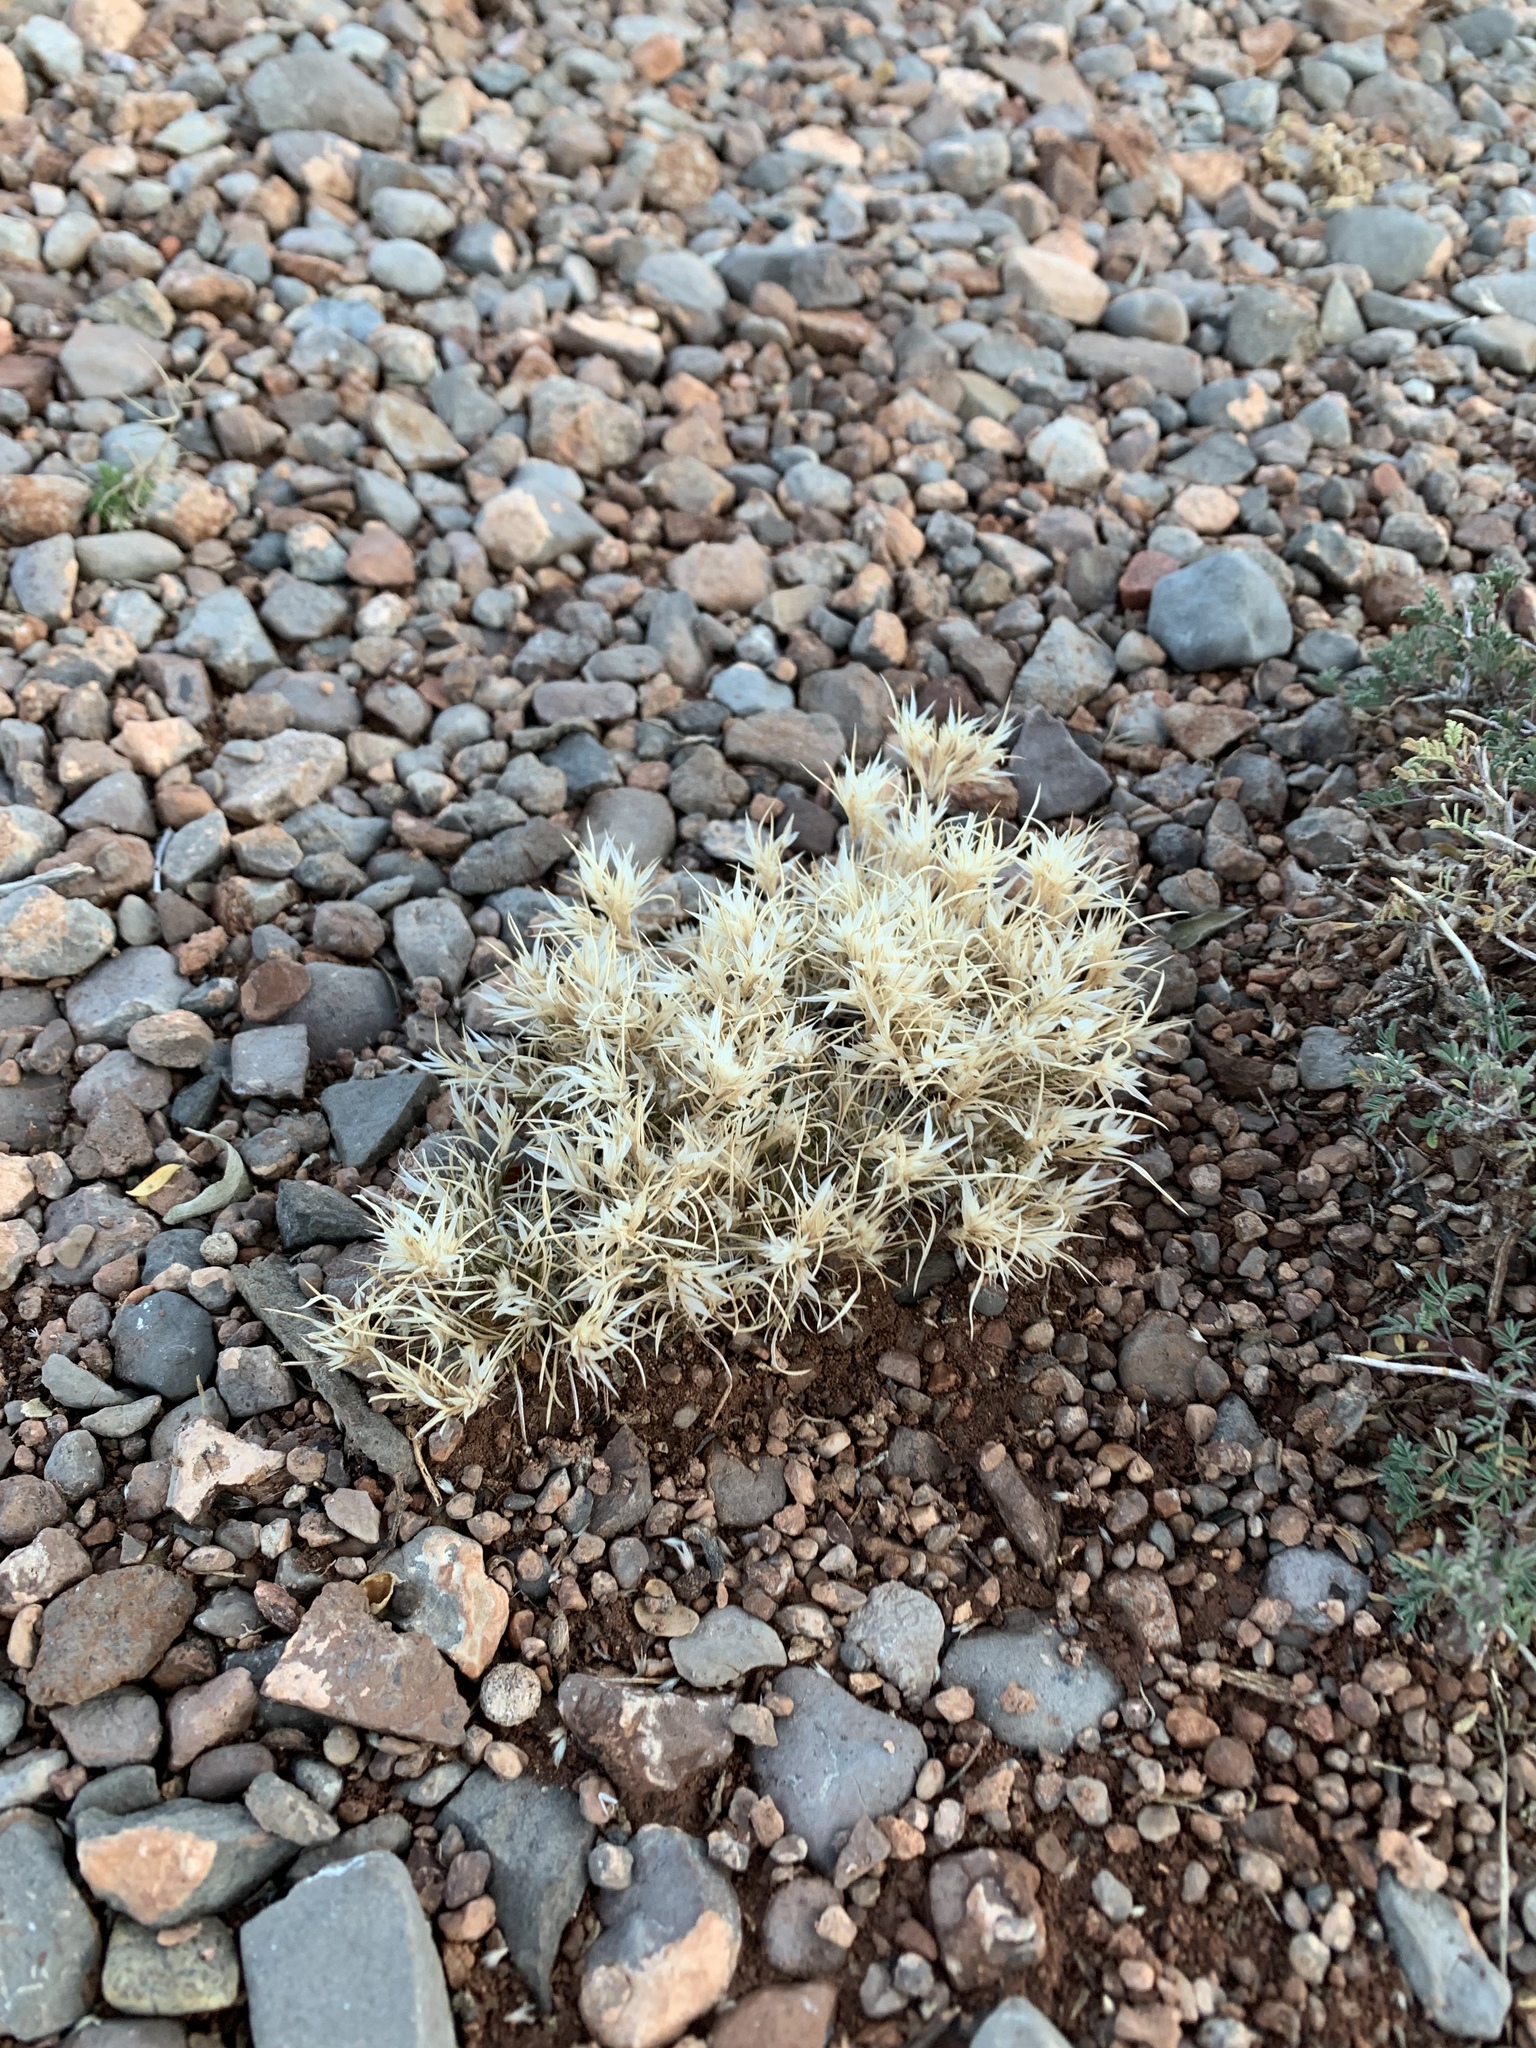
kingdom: Plantae
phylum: Tracheophyta
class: Liliopsida
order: Poales
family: Poaceae
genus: Dasyochloa
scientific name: Dasyochloa pulchella
